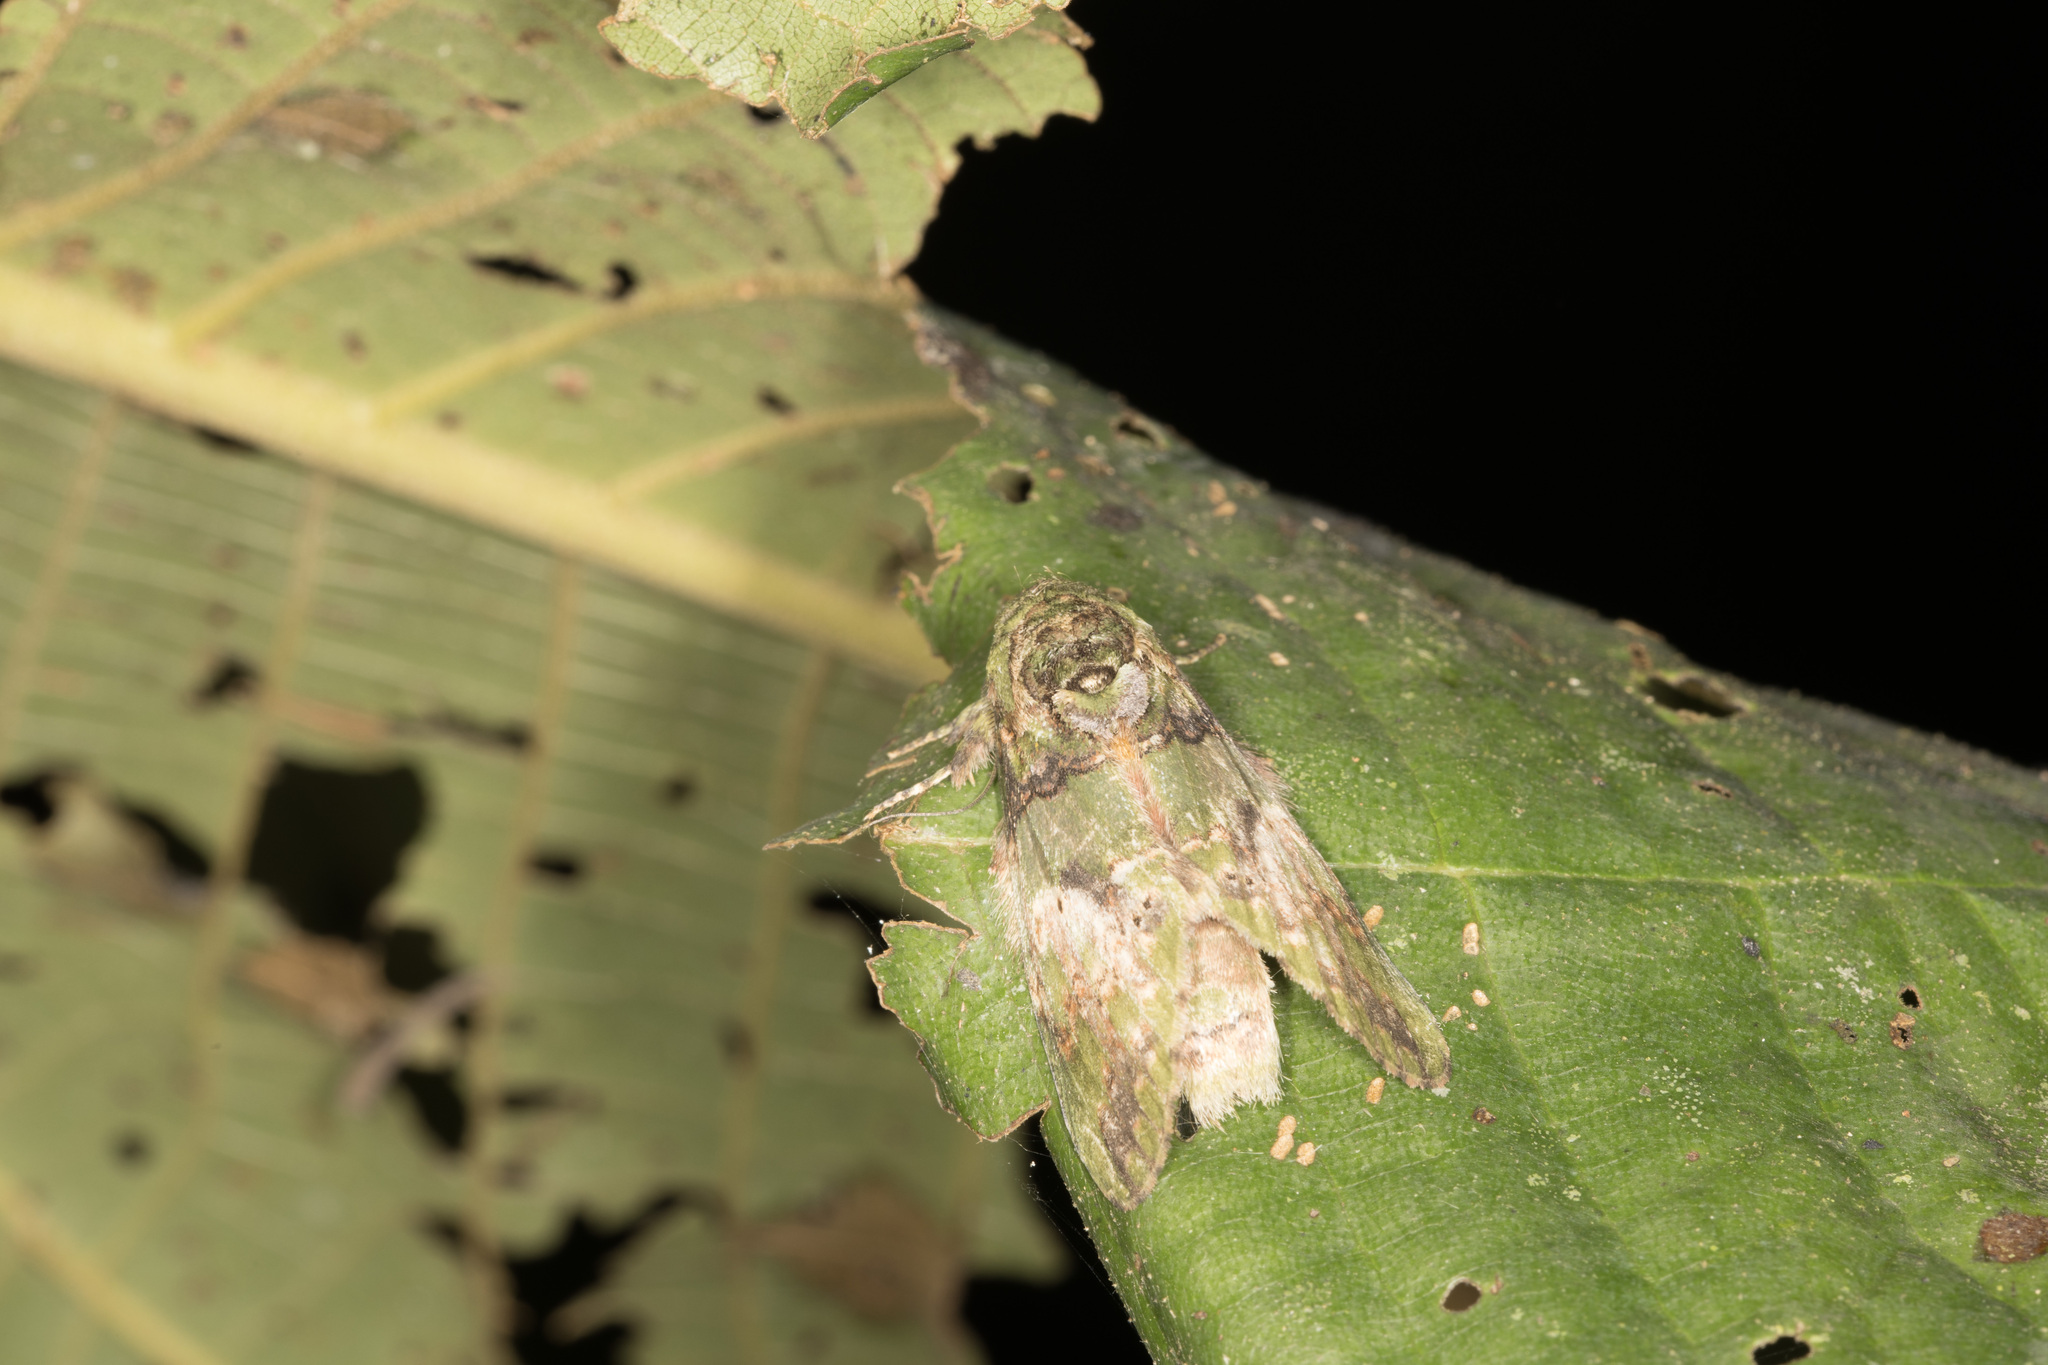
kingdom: Animalia
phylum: Arthropoda
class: Insecta
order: Lepidoptera
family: Notodontidae
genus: Disphragis
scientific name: Disphragis meretricia
